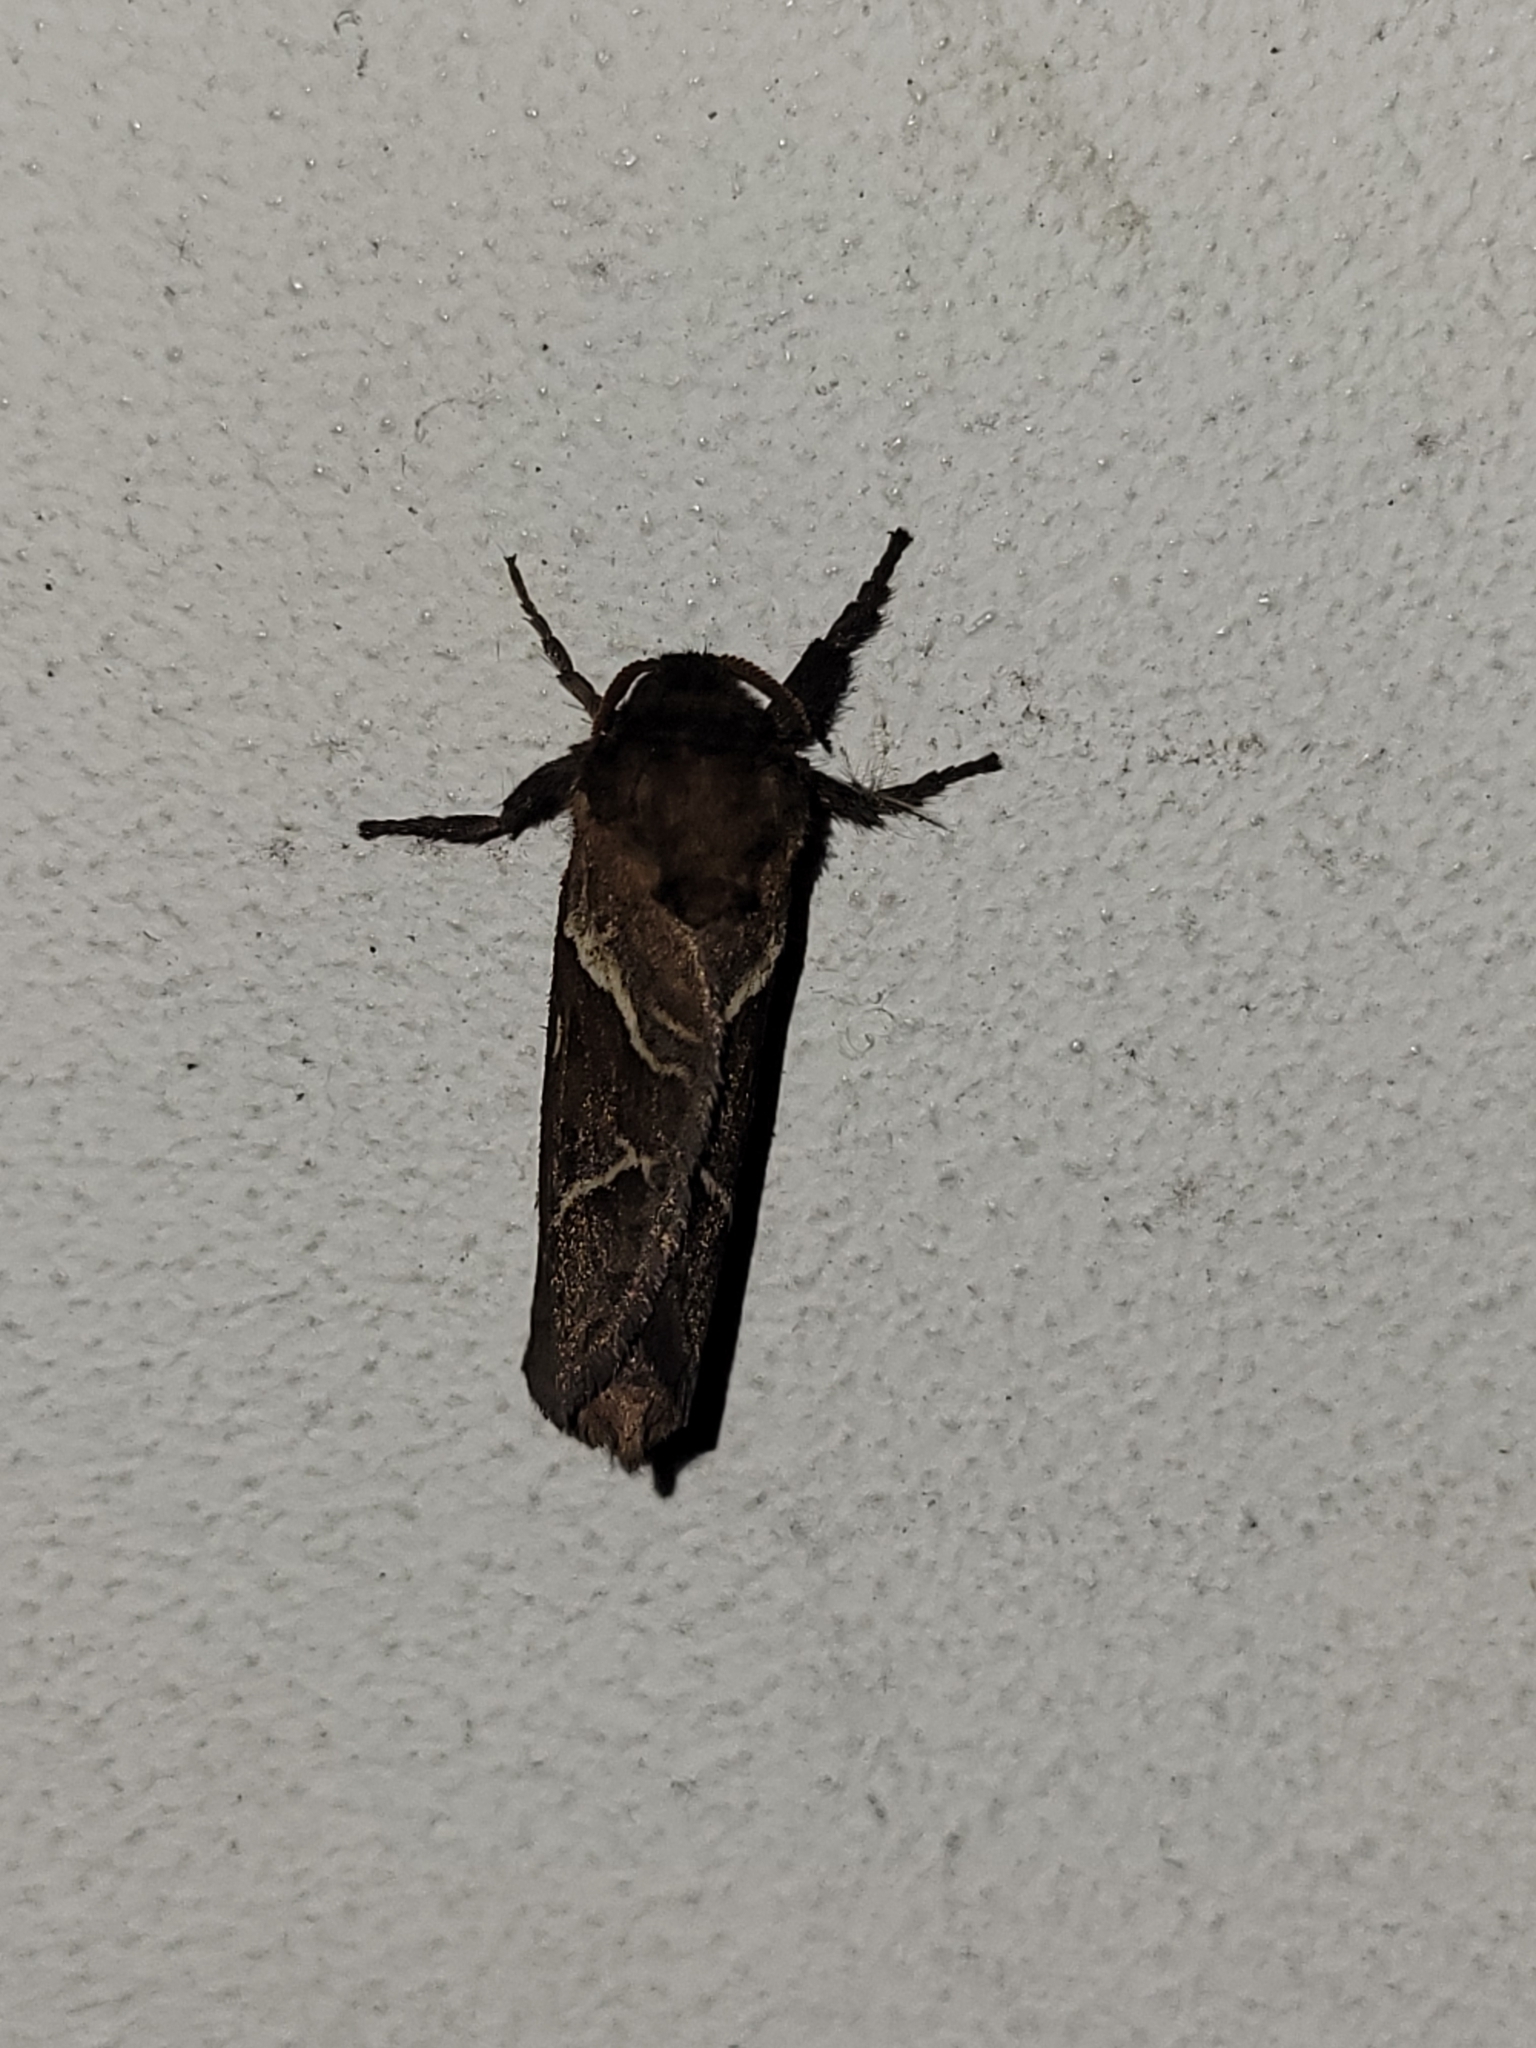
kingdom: Animalia
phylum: Arthropoda
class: Insecta
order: Lepidoptera
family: Hepialidae
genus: Triodia
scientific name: Triodia sylvina
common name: Orange swift
